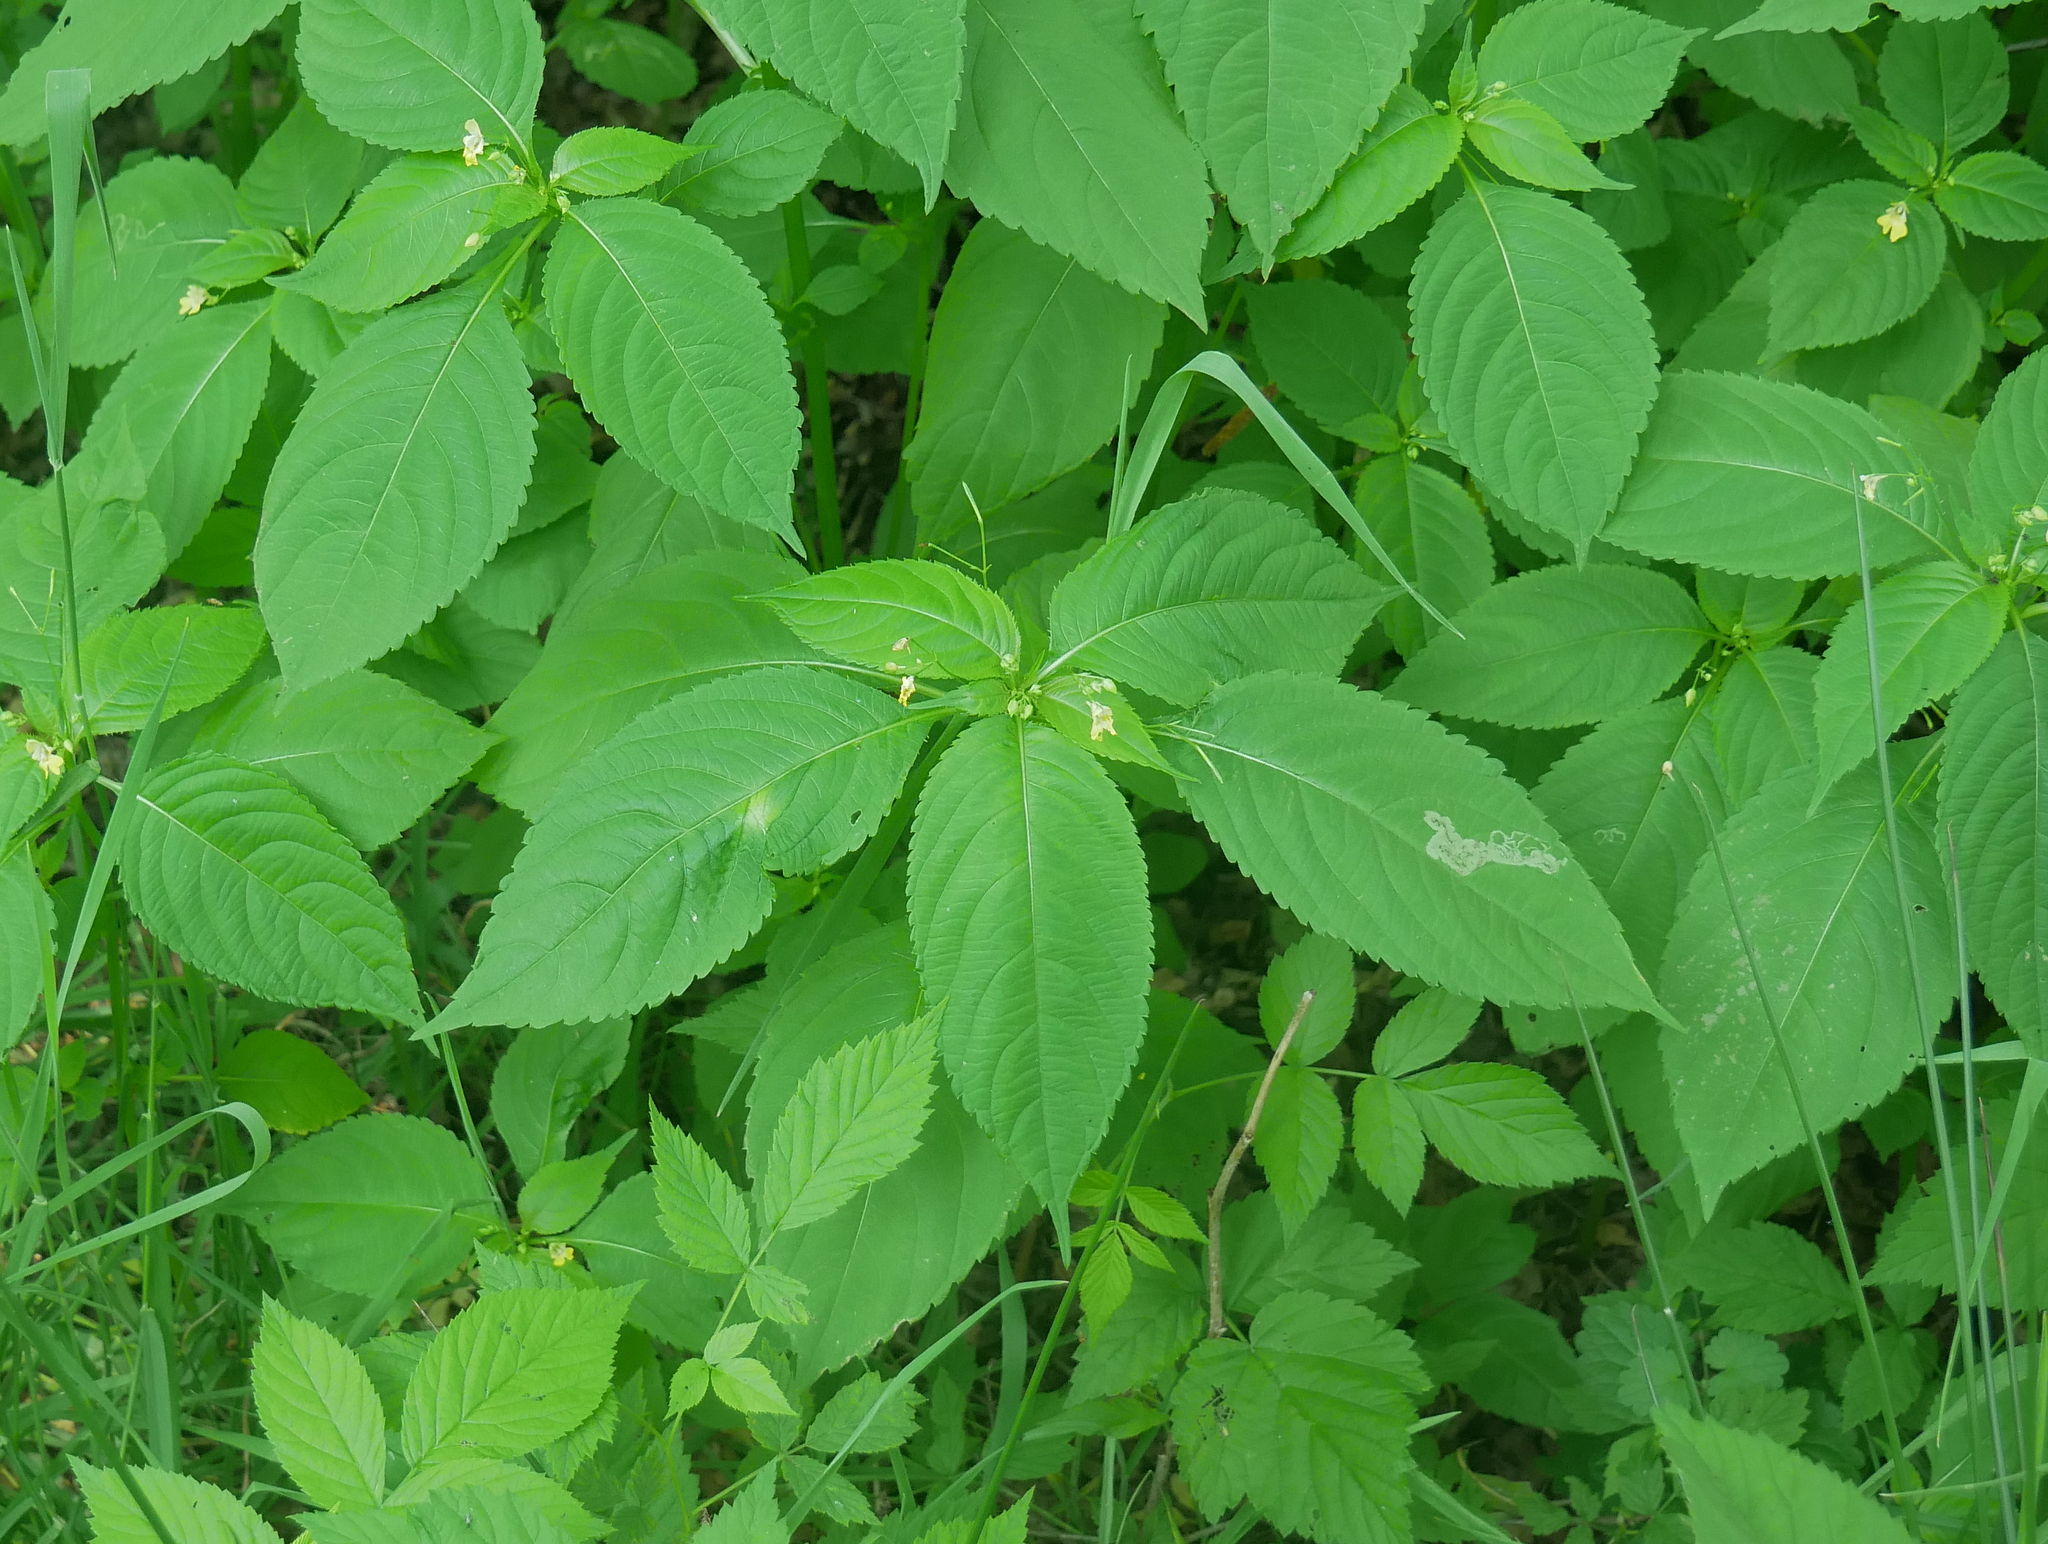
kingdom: Plantae
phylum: Tracheophyta
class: Magnoliopsida
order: Ericales
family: Balsaminaceae
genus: Impatiens
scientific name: Impatiens parviflora
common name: Small balsam
